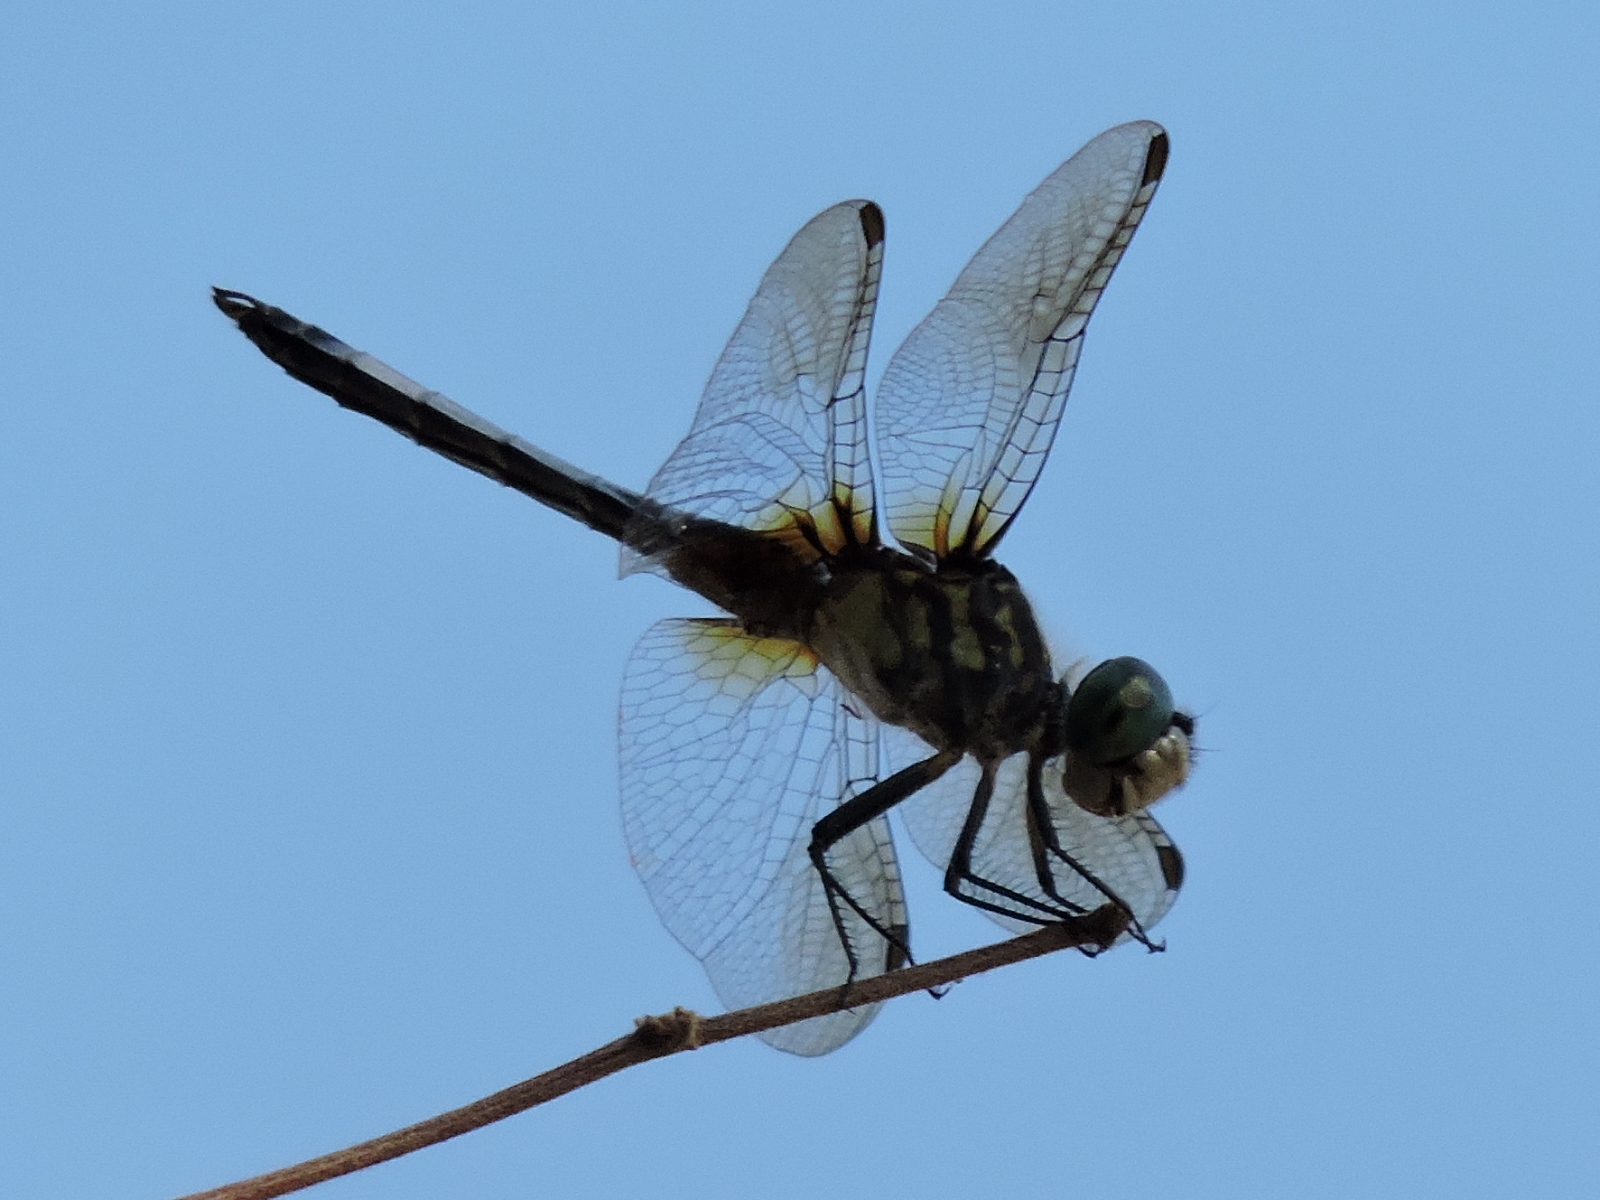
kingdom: Animalia
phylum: Arthropoda
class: Insecta
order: Odonata
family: Libellulidae
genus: Pachydiplax
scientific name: Pachydiplax longipennis
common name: Blue dasher
